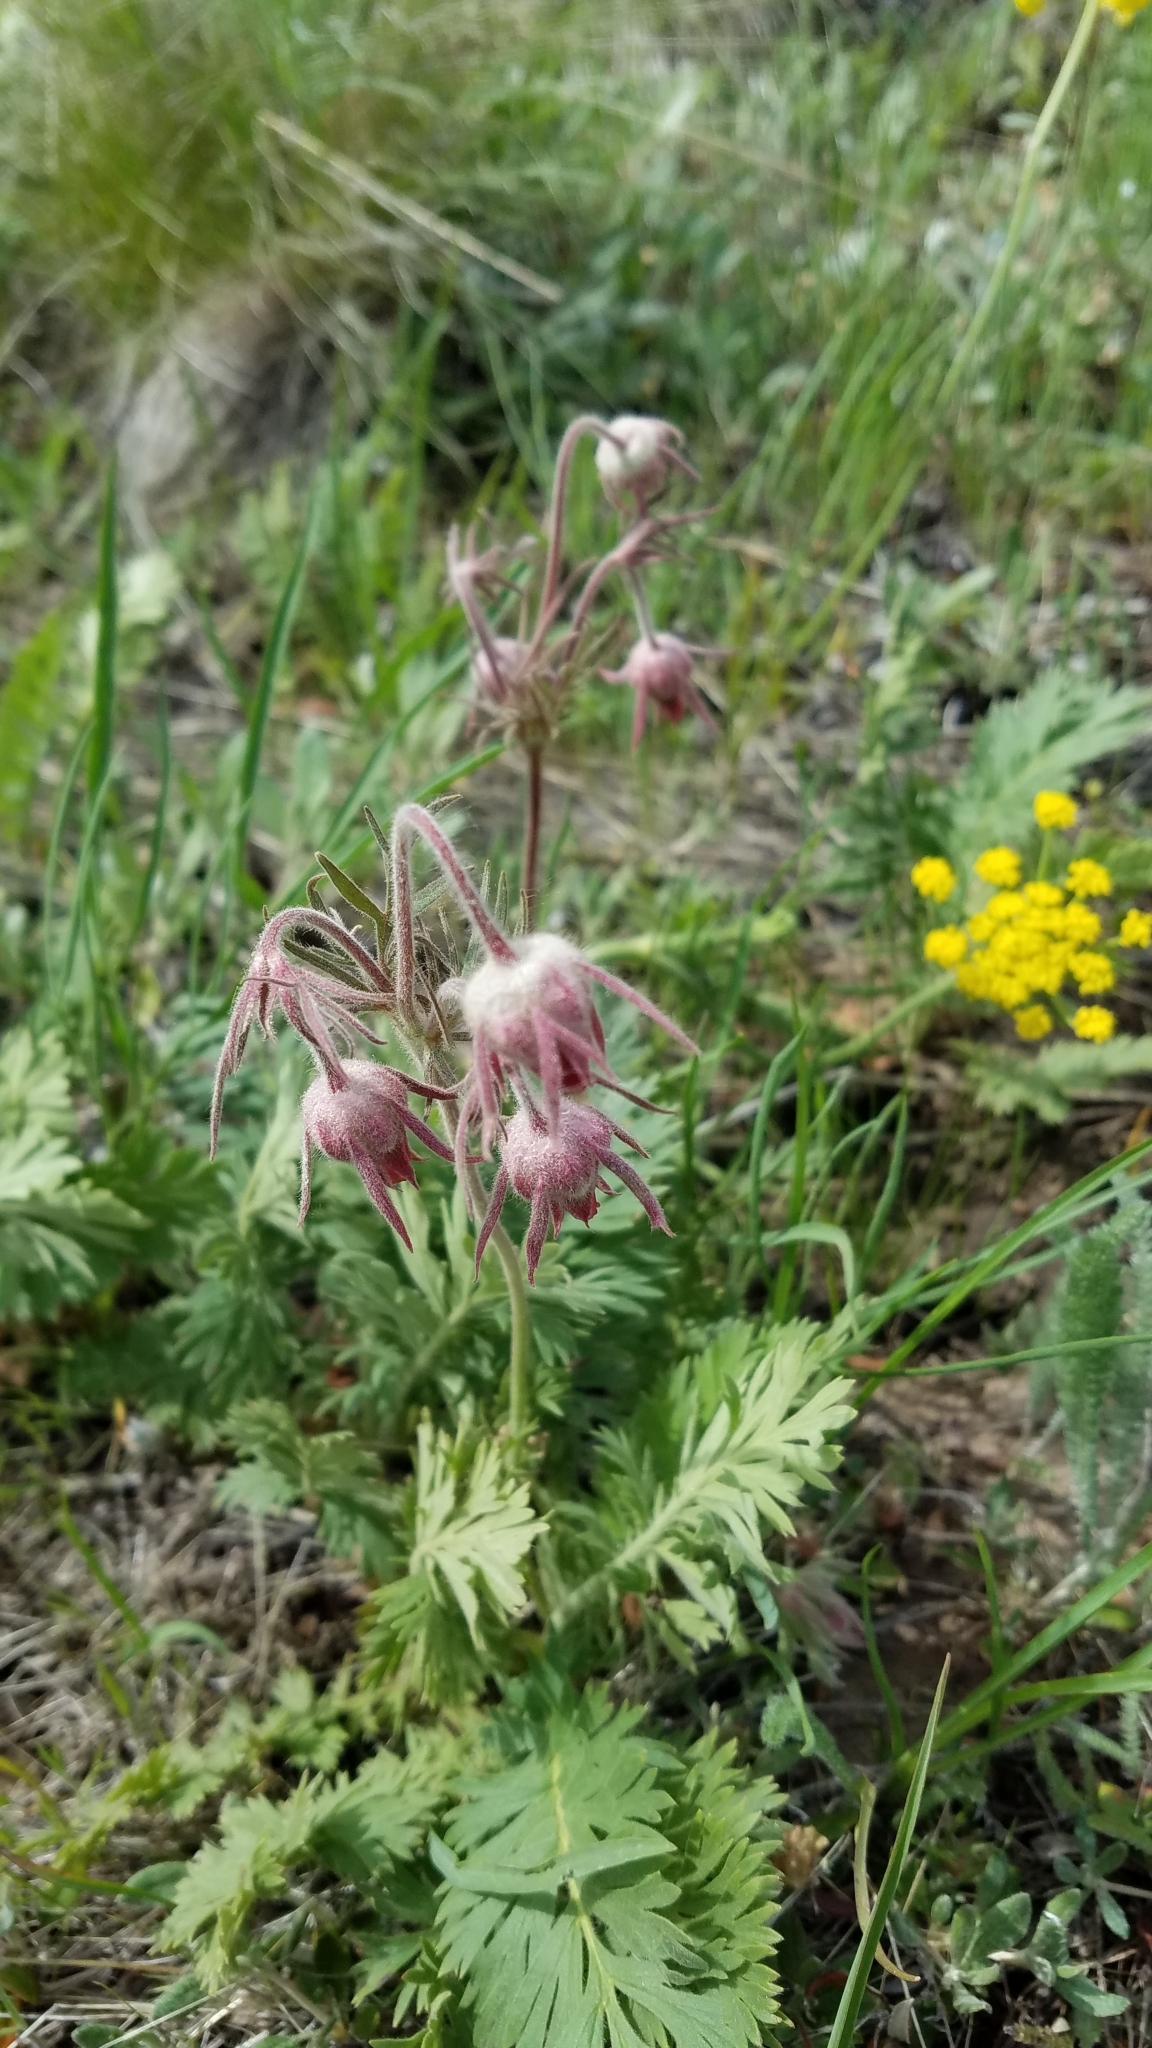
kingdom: Plantae
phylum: Tracheophyta
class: Magnoliopsida
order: Rosales
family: Rosaceae
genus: Geum
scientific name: Geum triflorum
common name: Old man's whiskers
